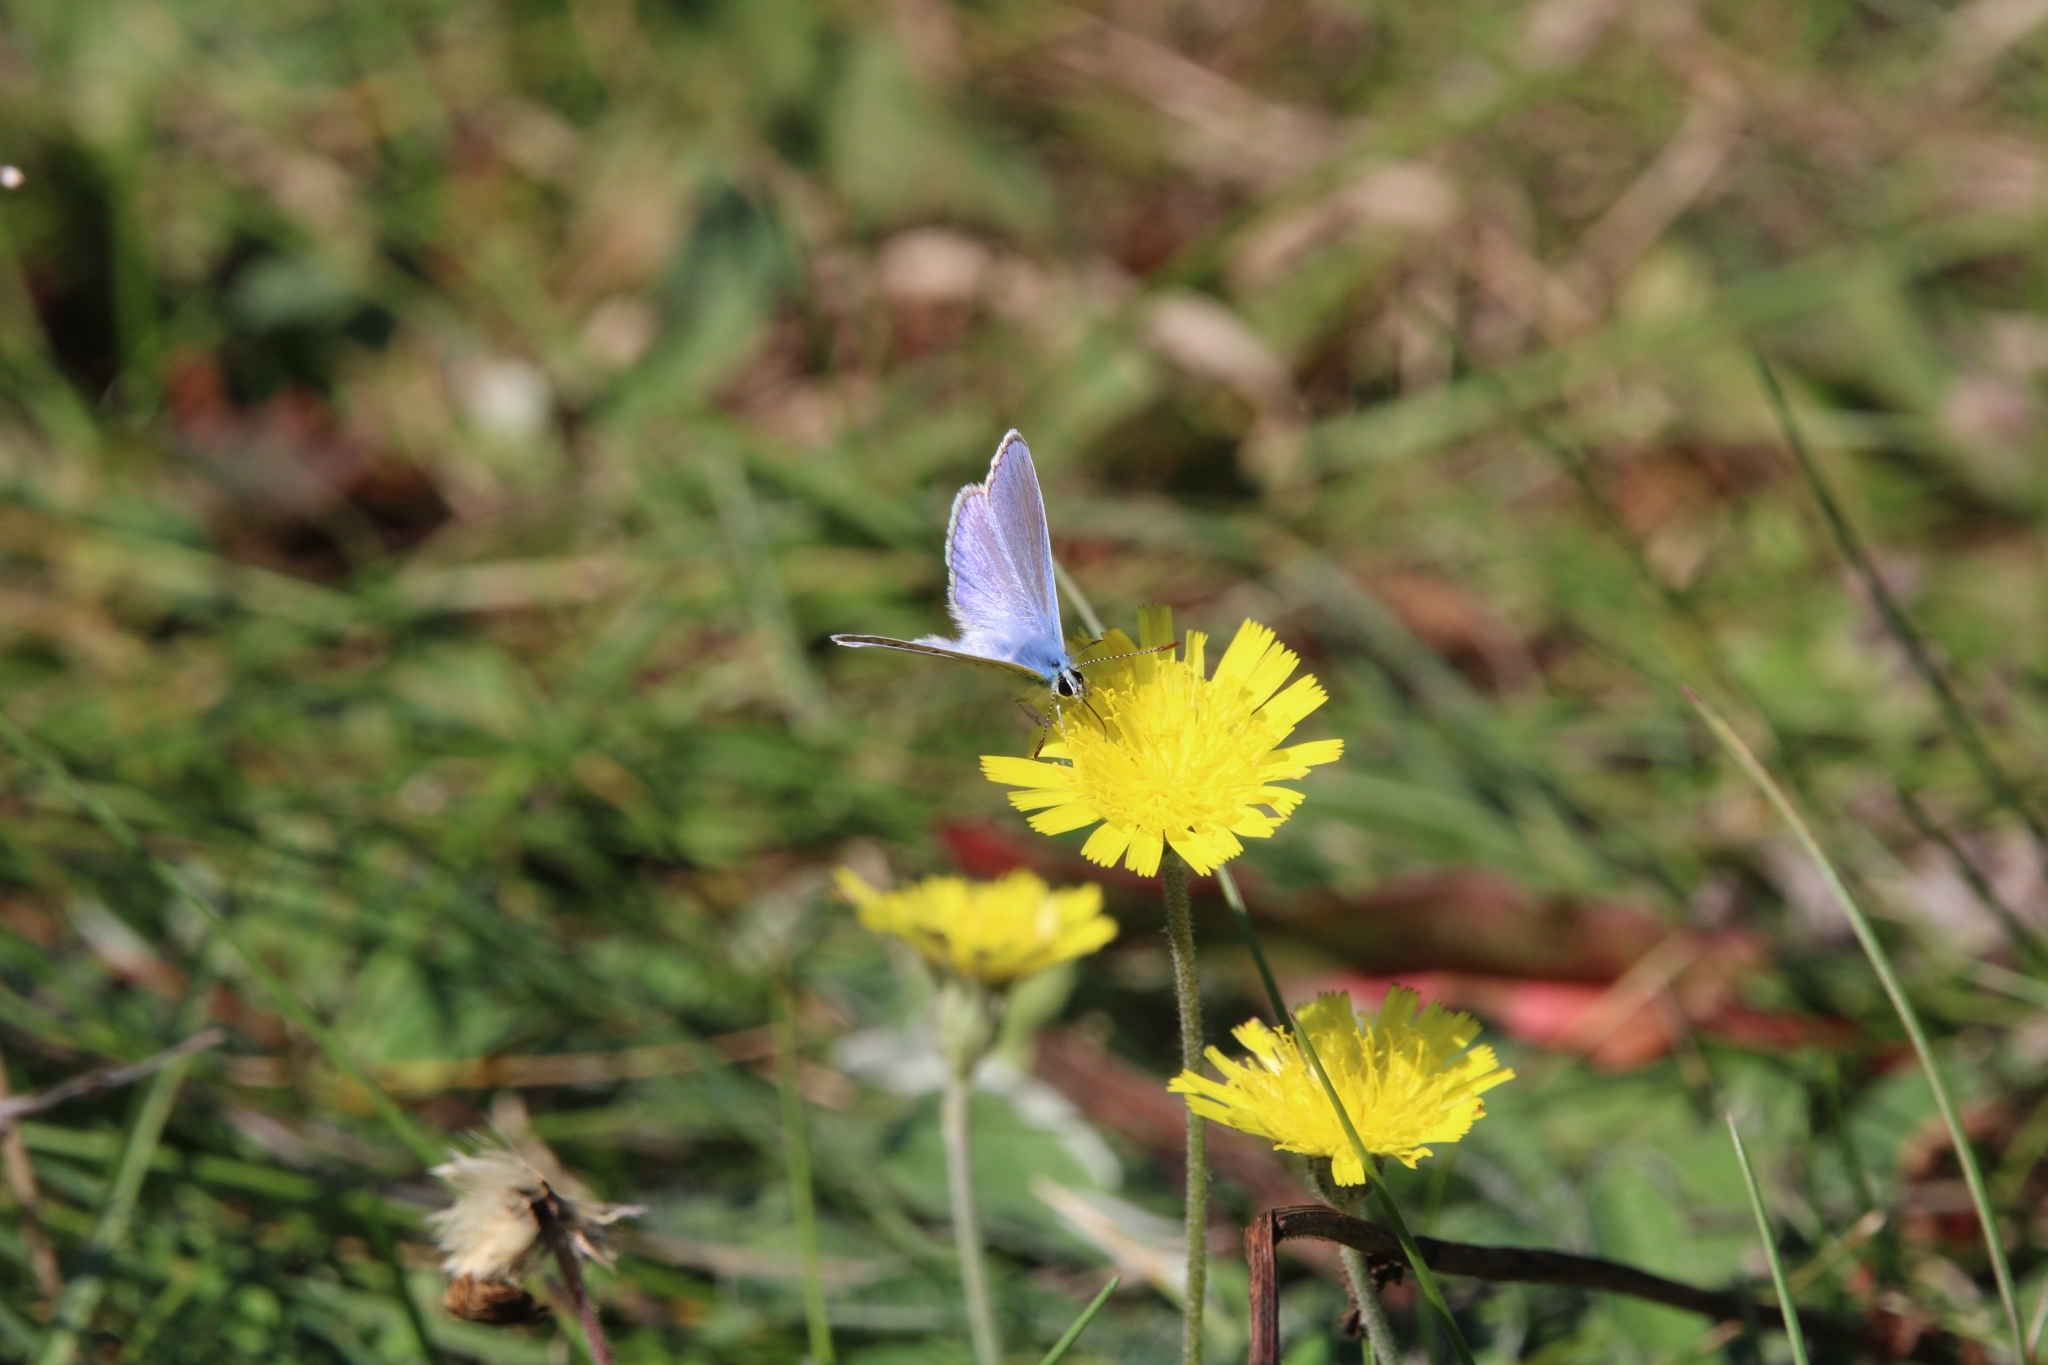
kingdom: Animalia
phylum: Arthropoda
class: Insecta
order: Lepidoptera
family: Lycaenidae
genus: Polyommatus
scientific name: Polyommatus icarus
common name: Common blue
